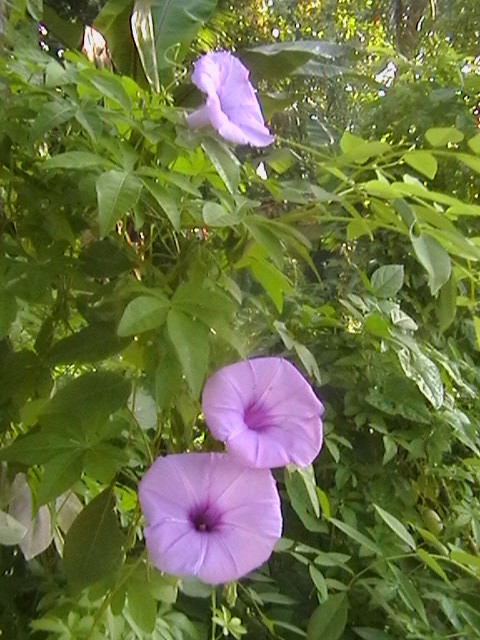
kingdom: Plantae
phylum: Tracheophyta
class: Magnoliopsida
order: Solanales
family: Convolvulaceae
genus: Ipomoea
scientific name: Ipomoea cairica
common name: Mile a minute vine
